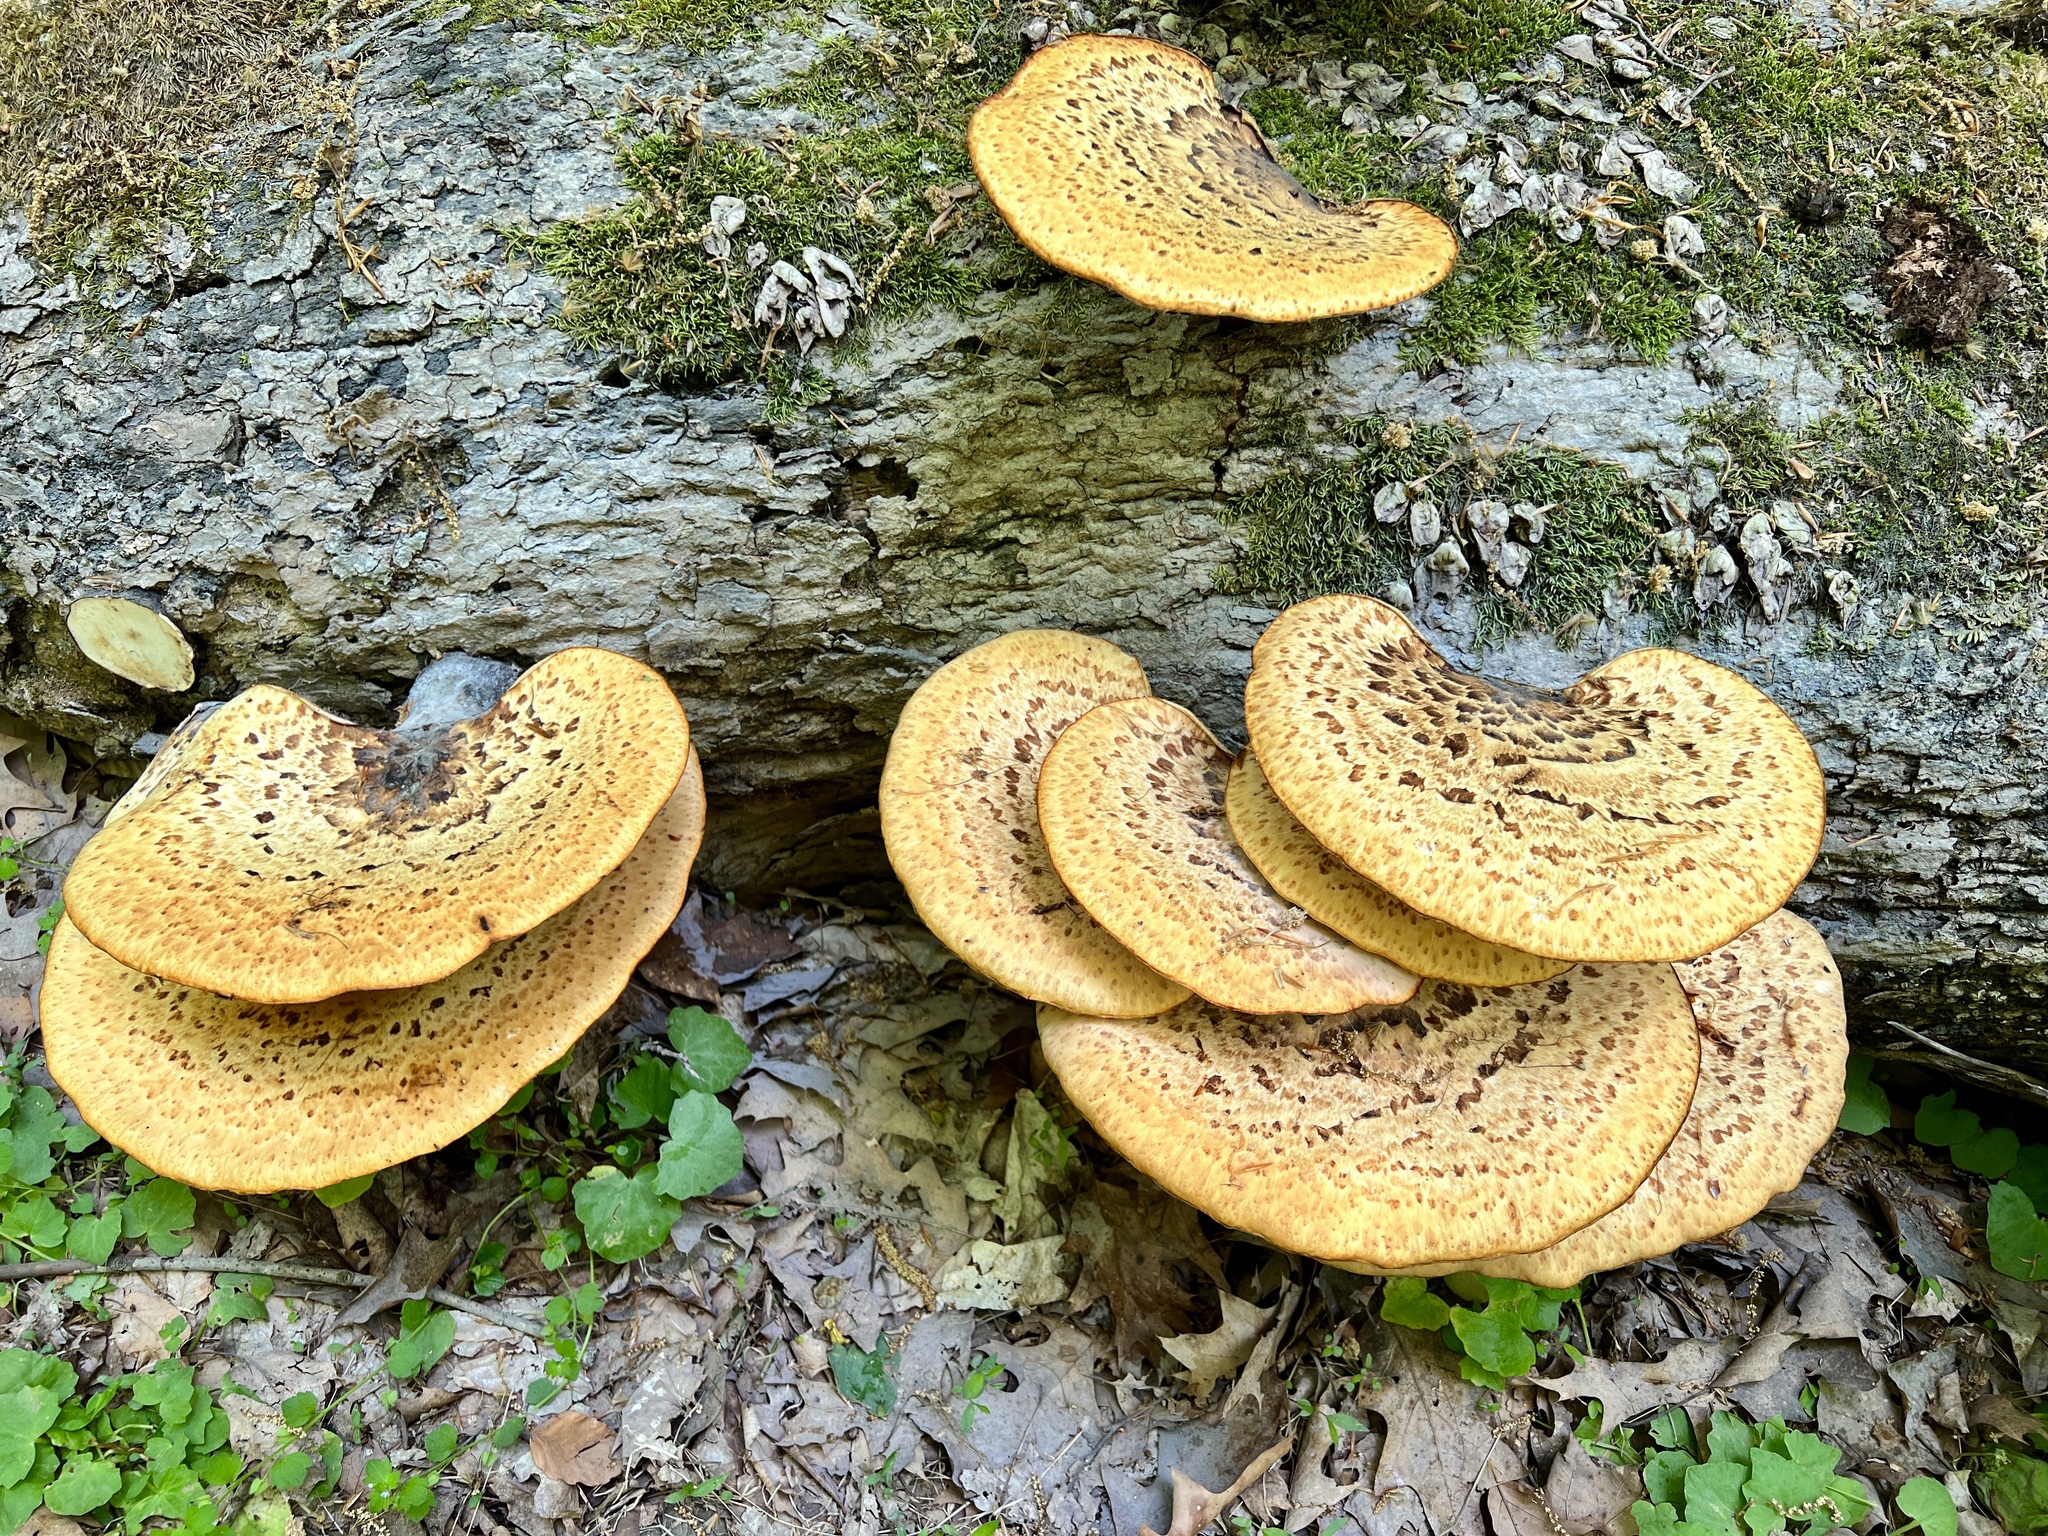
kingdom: Fungi
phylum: Basidiomycota
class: Agaricomycetes
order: Polyporales
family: Polyporaceae
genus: Cerioporus
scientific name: Cerioporus squamosus
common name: Dryad's saddle
